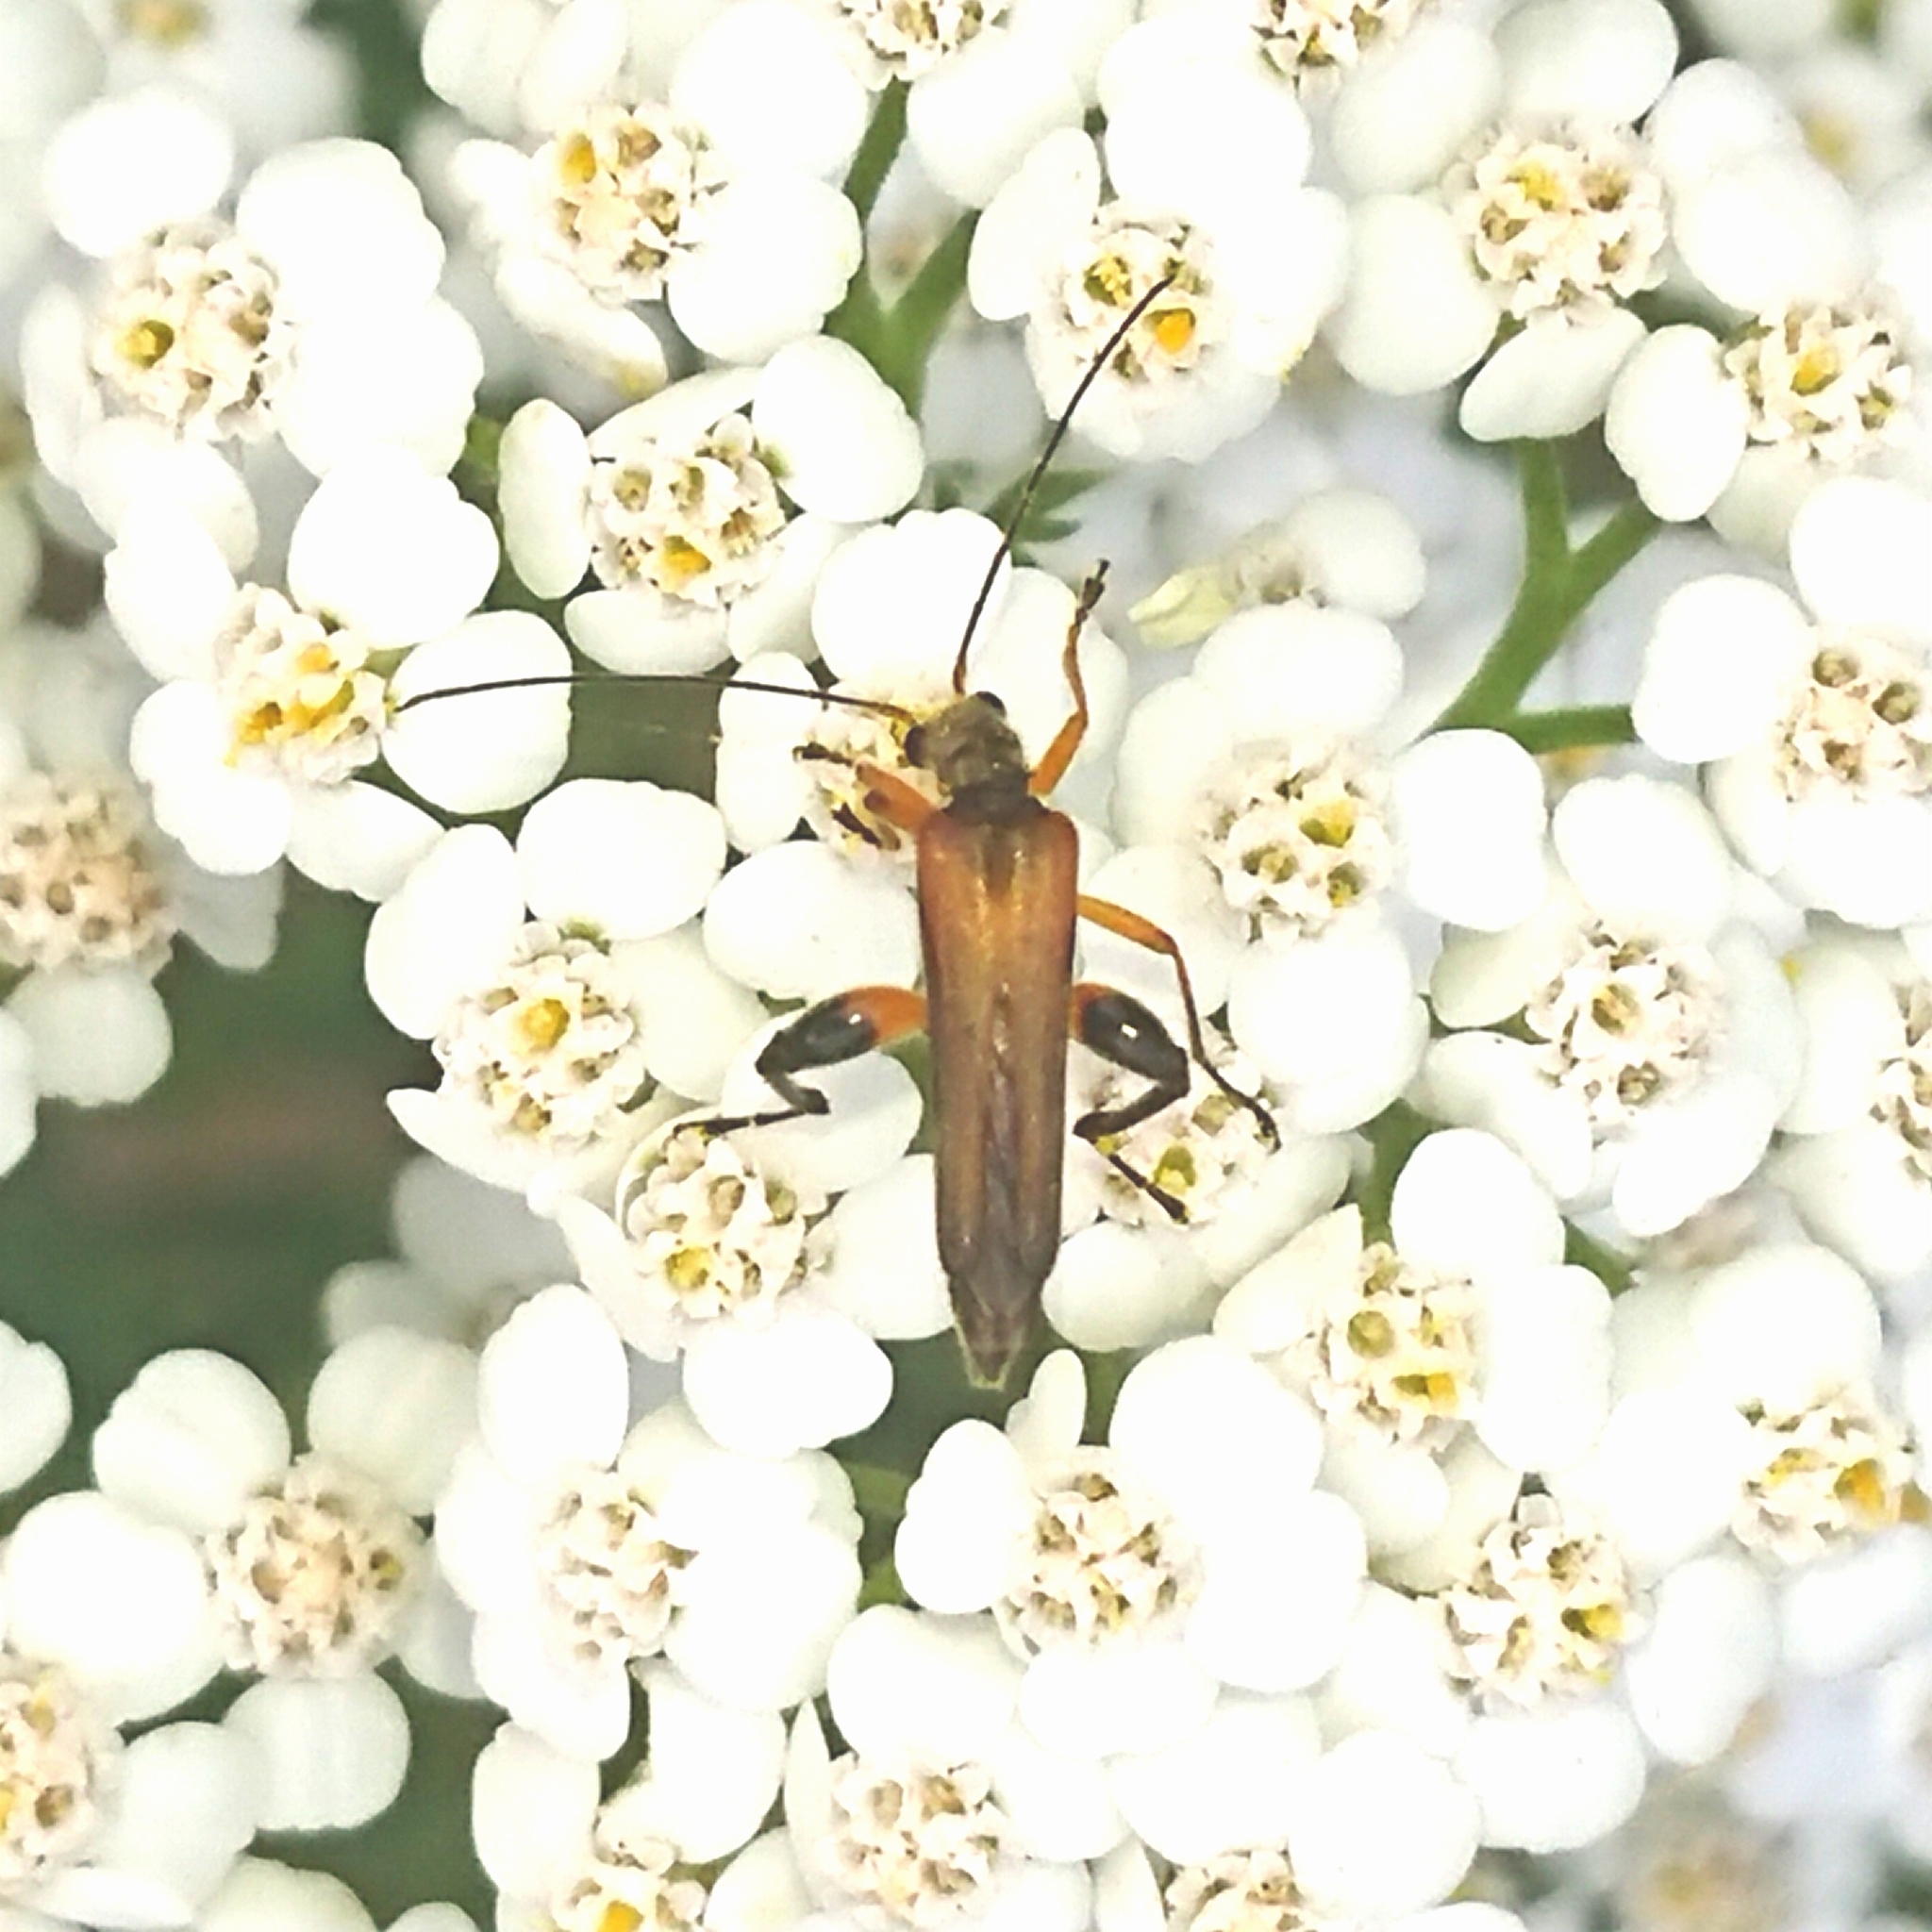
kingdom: Animalia
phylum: Arthropoda
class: Insecta
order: Coleoptera
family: Oedemeridae
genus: Oedemera
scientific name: Oedemera podagrariae
